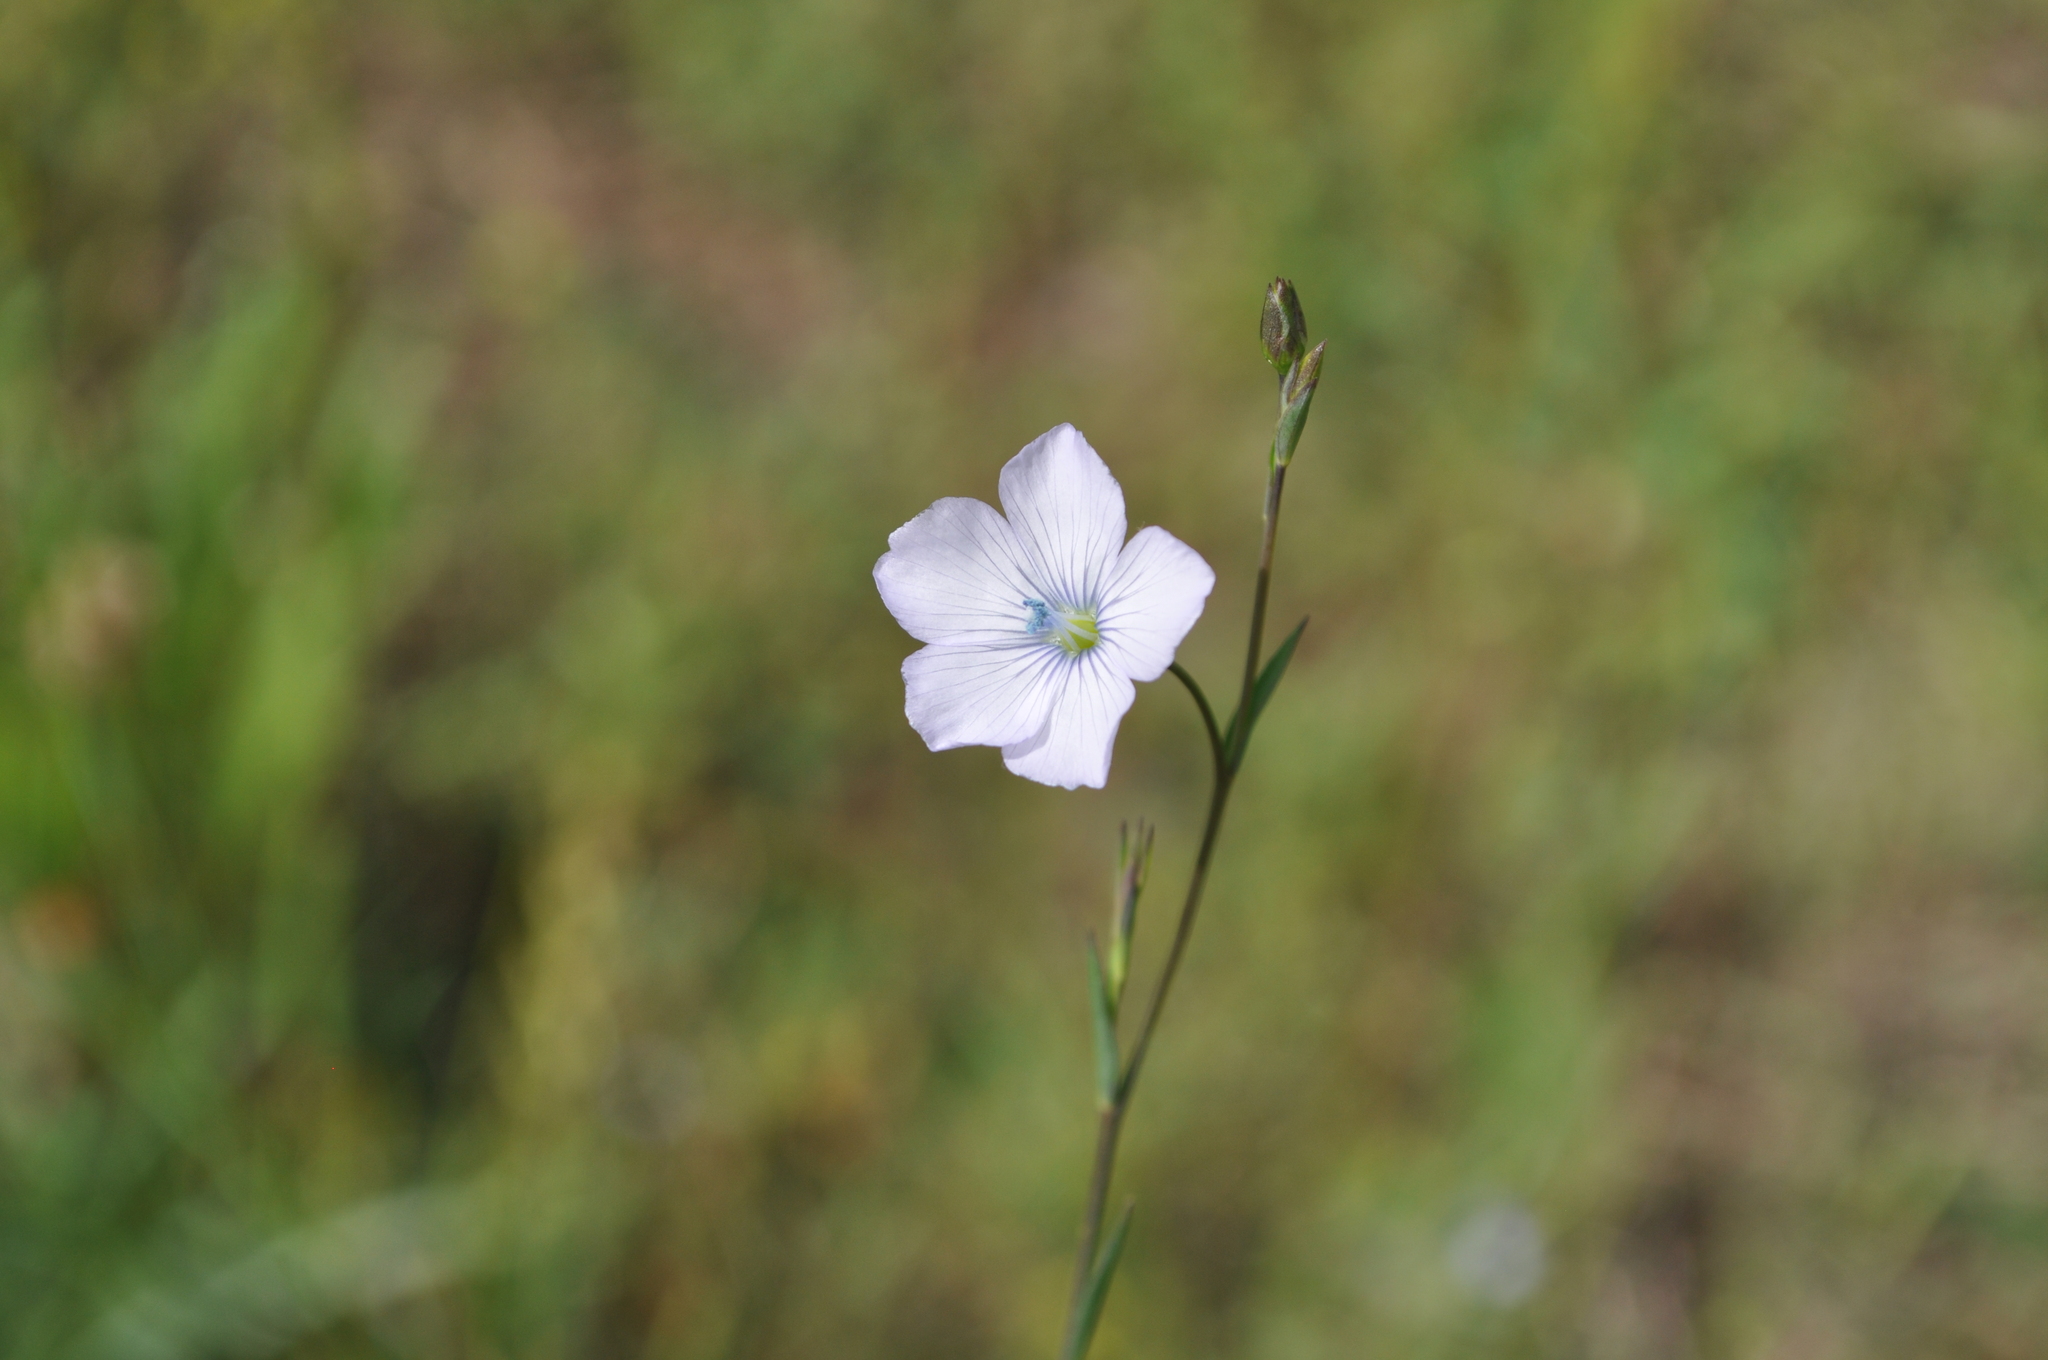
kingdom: Plantae
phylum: Tracheophyta
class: Magnoliopsida
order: Malpighiales
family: Linaceae
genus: Linum
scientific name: Linum bienne
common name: Pale flax
